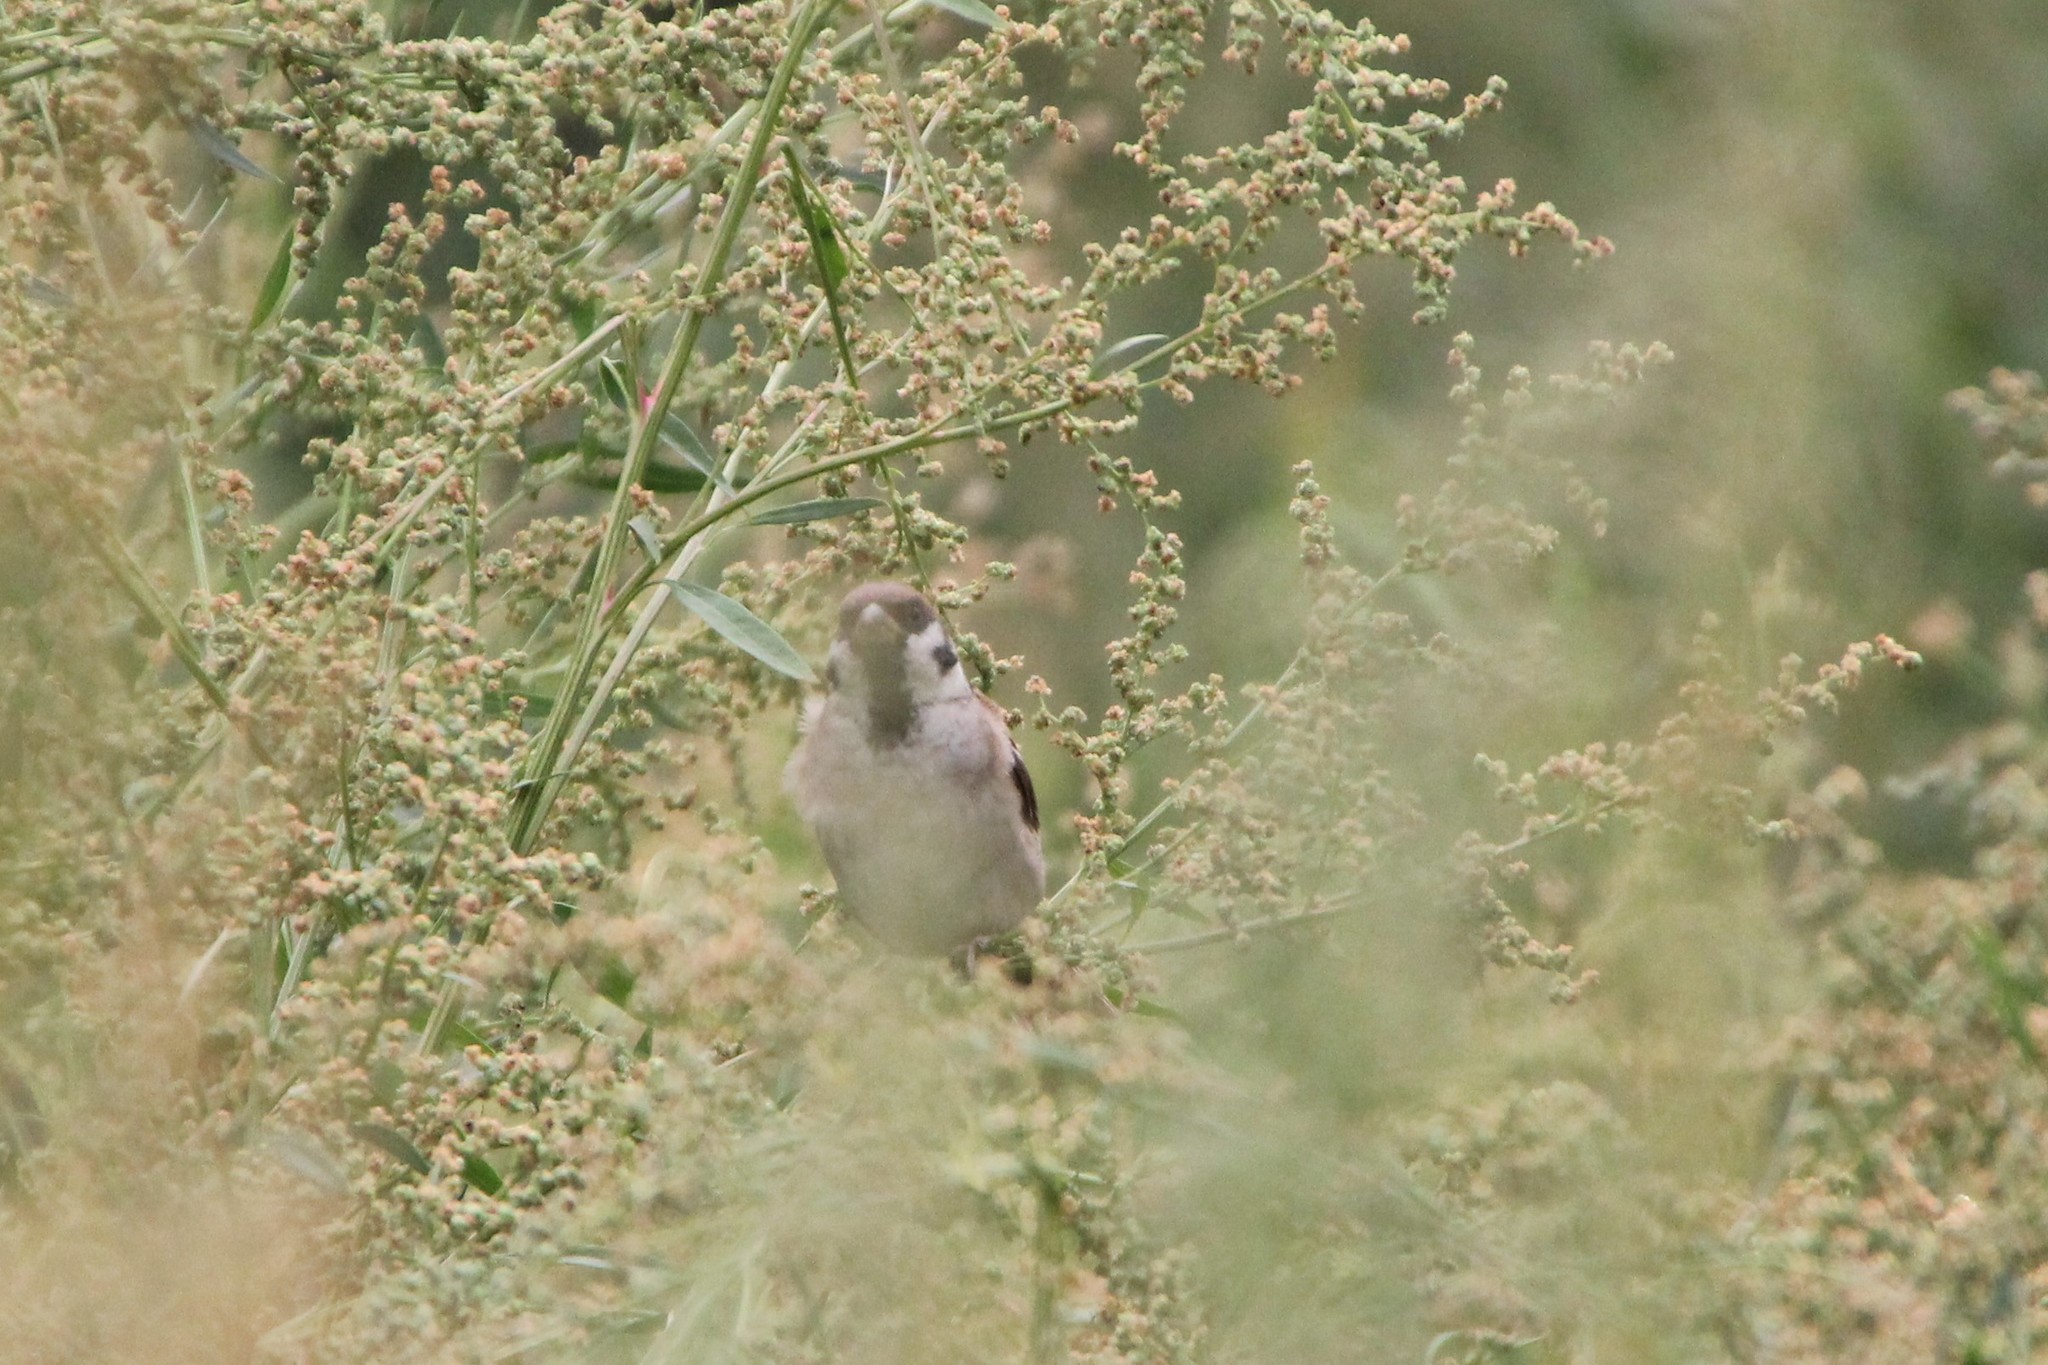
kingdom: Animalia
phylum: Chordata
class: Aves
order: Passeriformes
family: Passeridae
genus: Passer
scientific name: Passer montanus
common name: Eurasian tree sparrow
